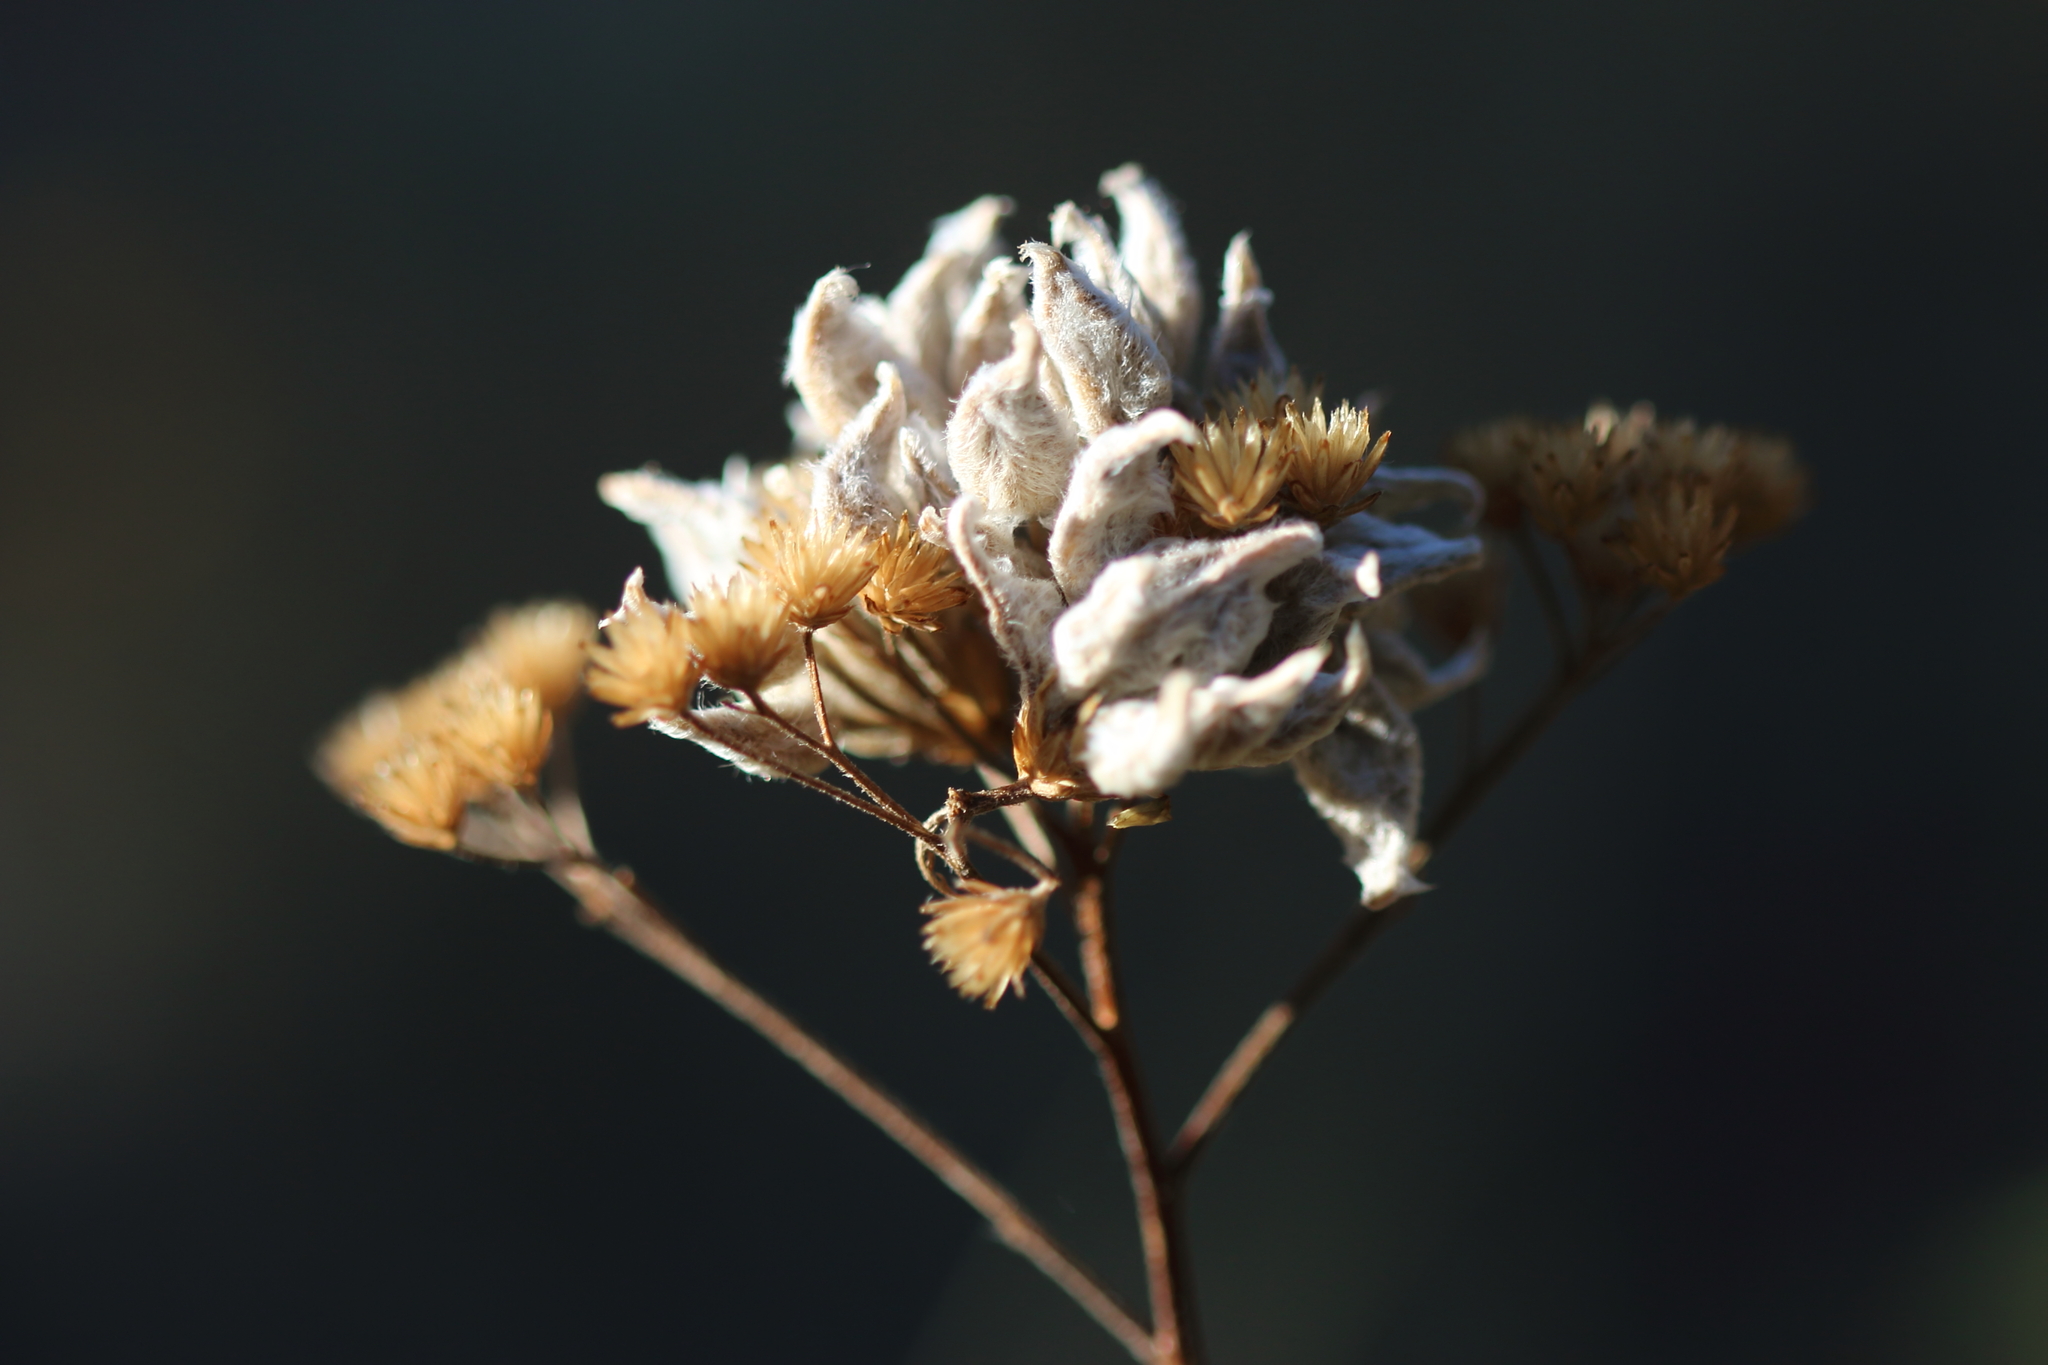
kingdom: Animalia
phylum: Arthropoda
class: Arachnida
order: Trombidiformes
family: Eriophyidae
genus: Aceria
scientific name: Aceria kiefferi
